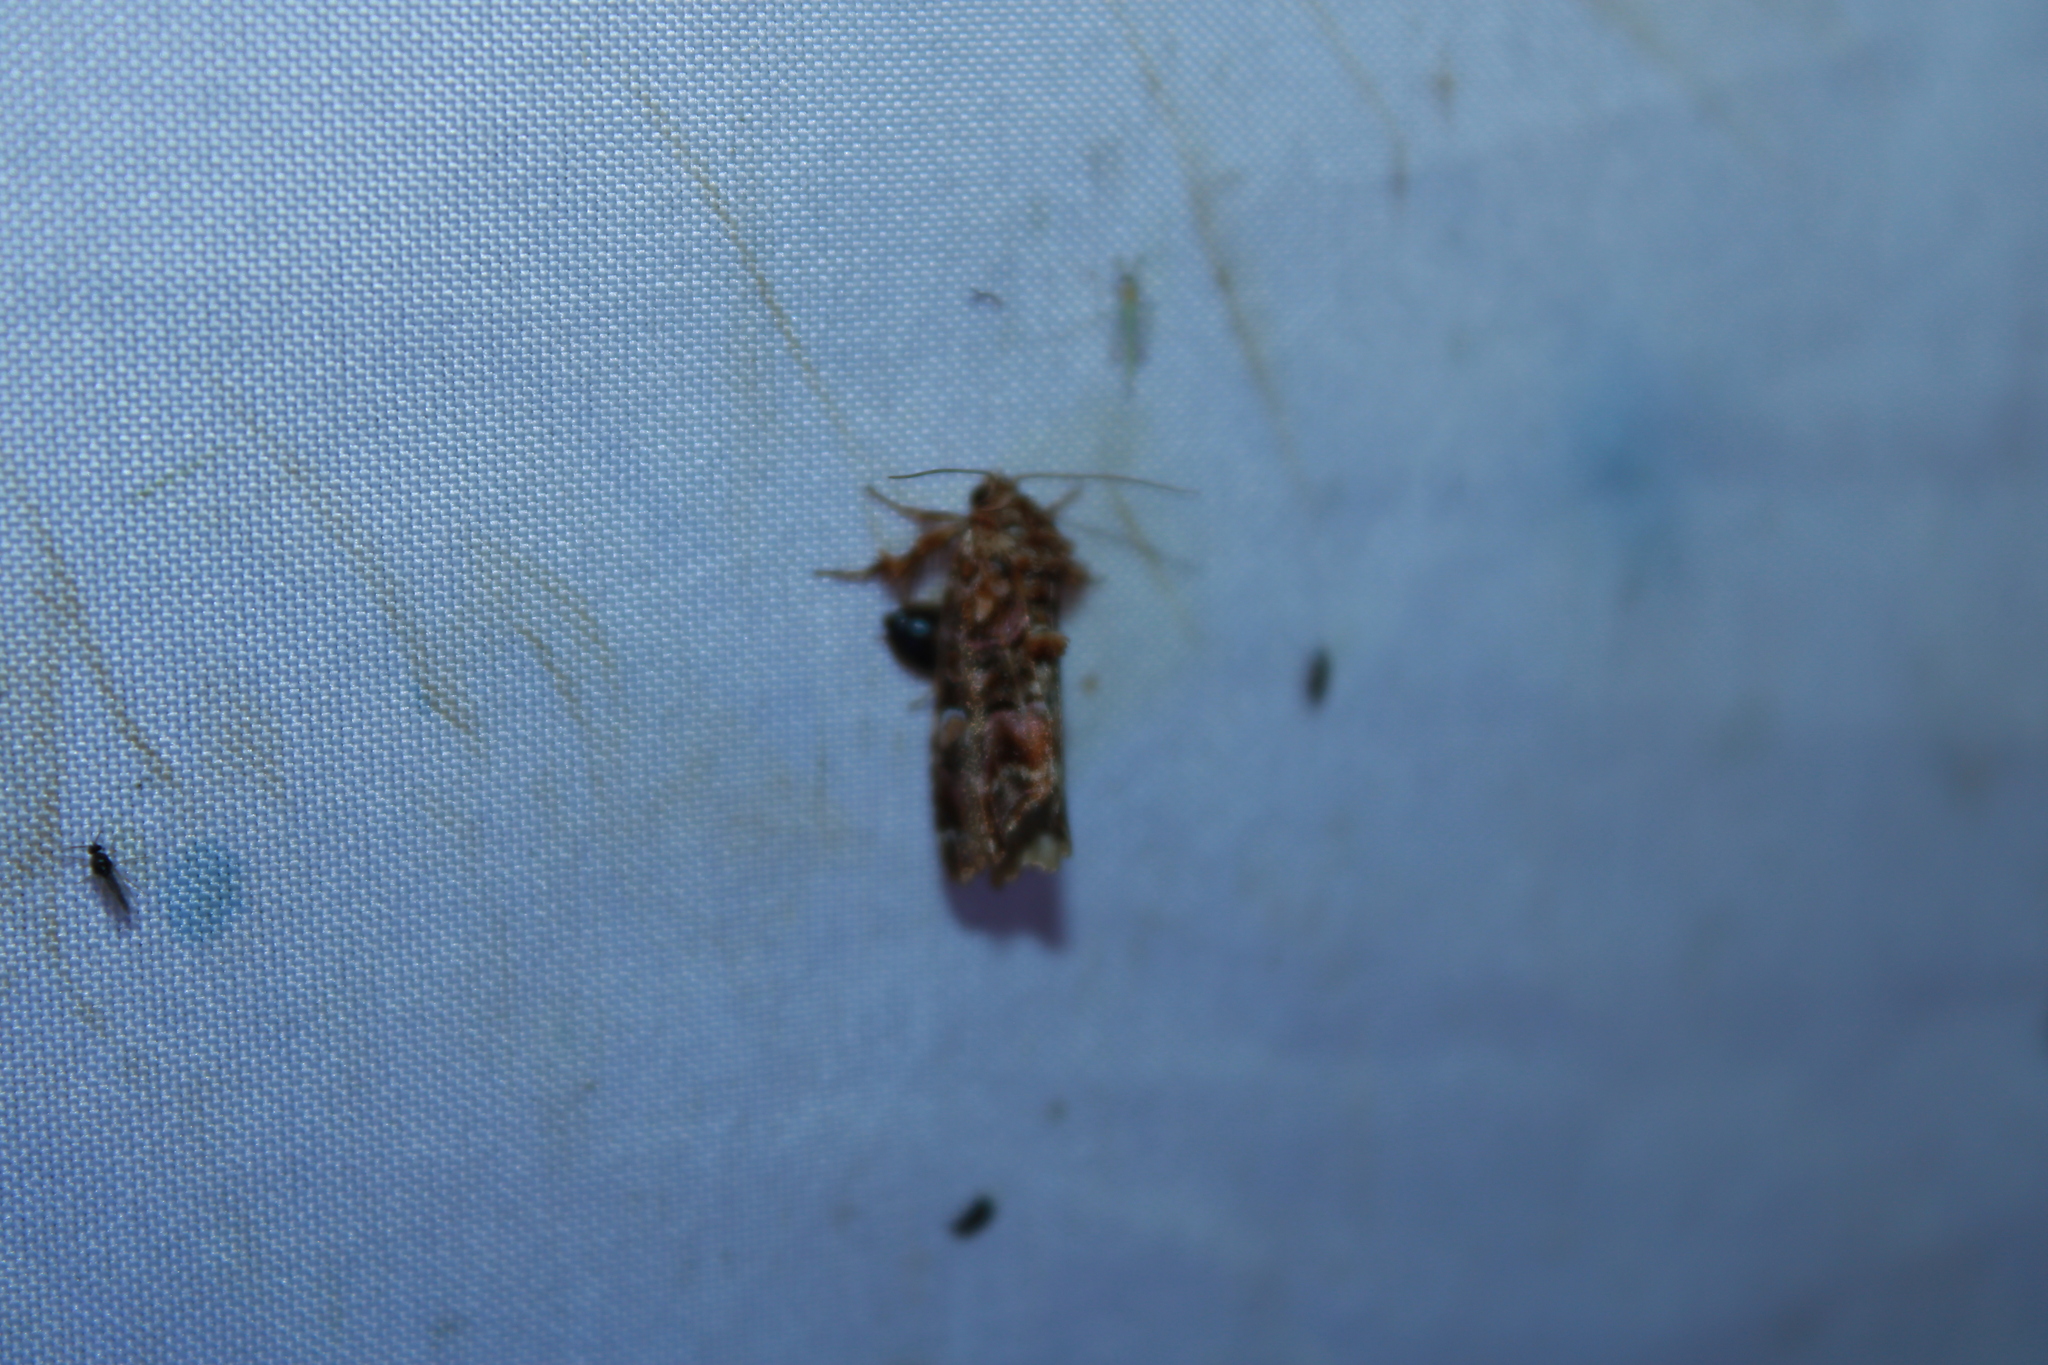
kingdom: Animalia
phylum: Arthropoda
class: Insecta
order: Lepidoptera
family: Noctuidae
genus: Callopistria
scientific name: Callopistria mollissima
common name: Pink-shaded fern moth
